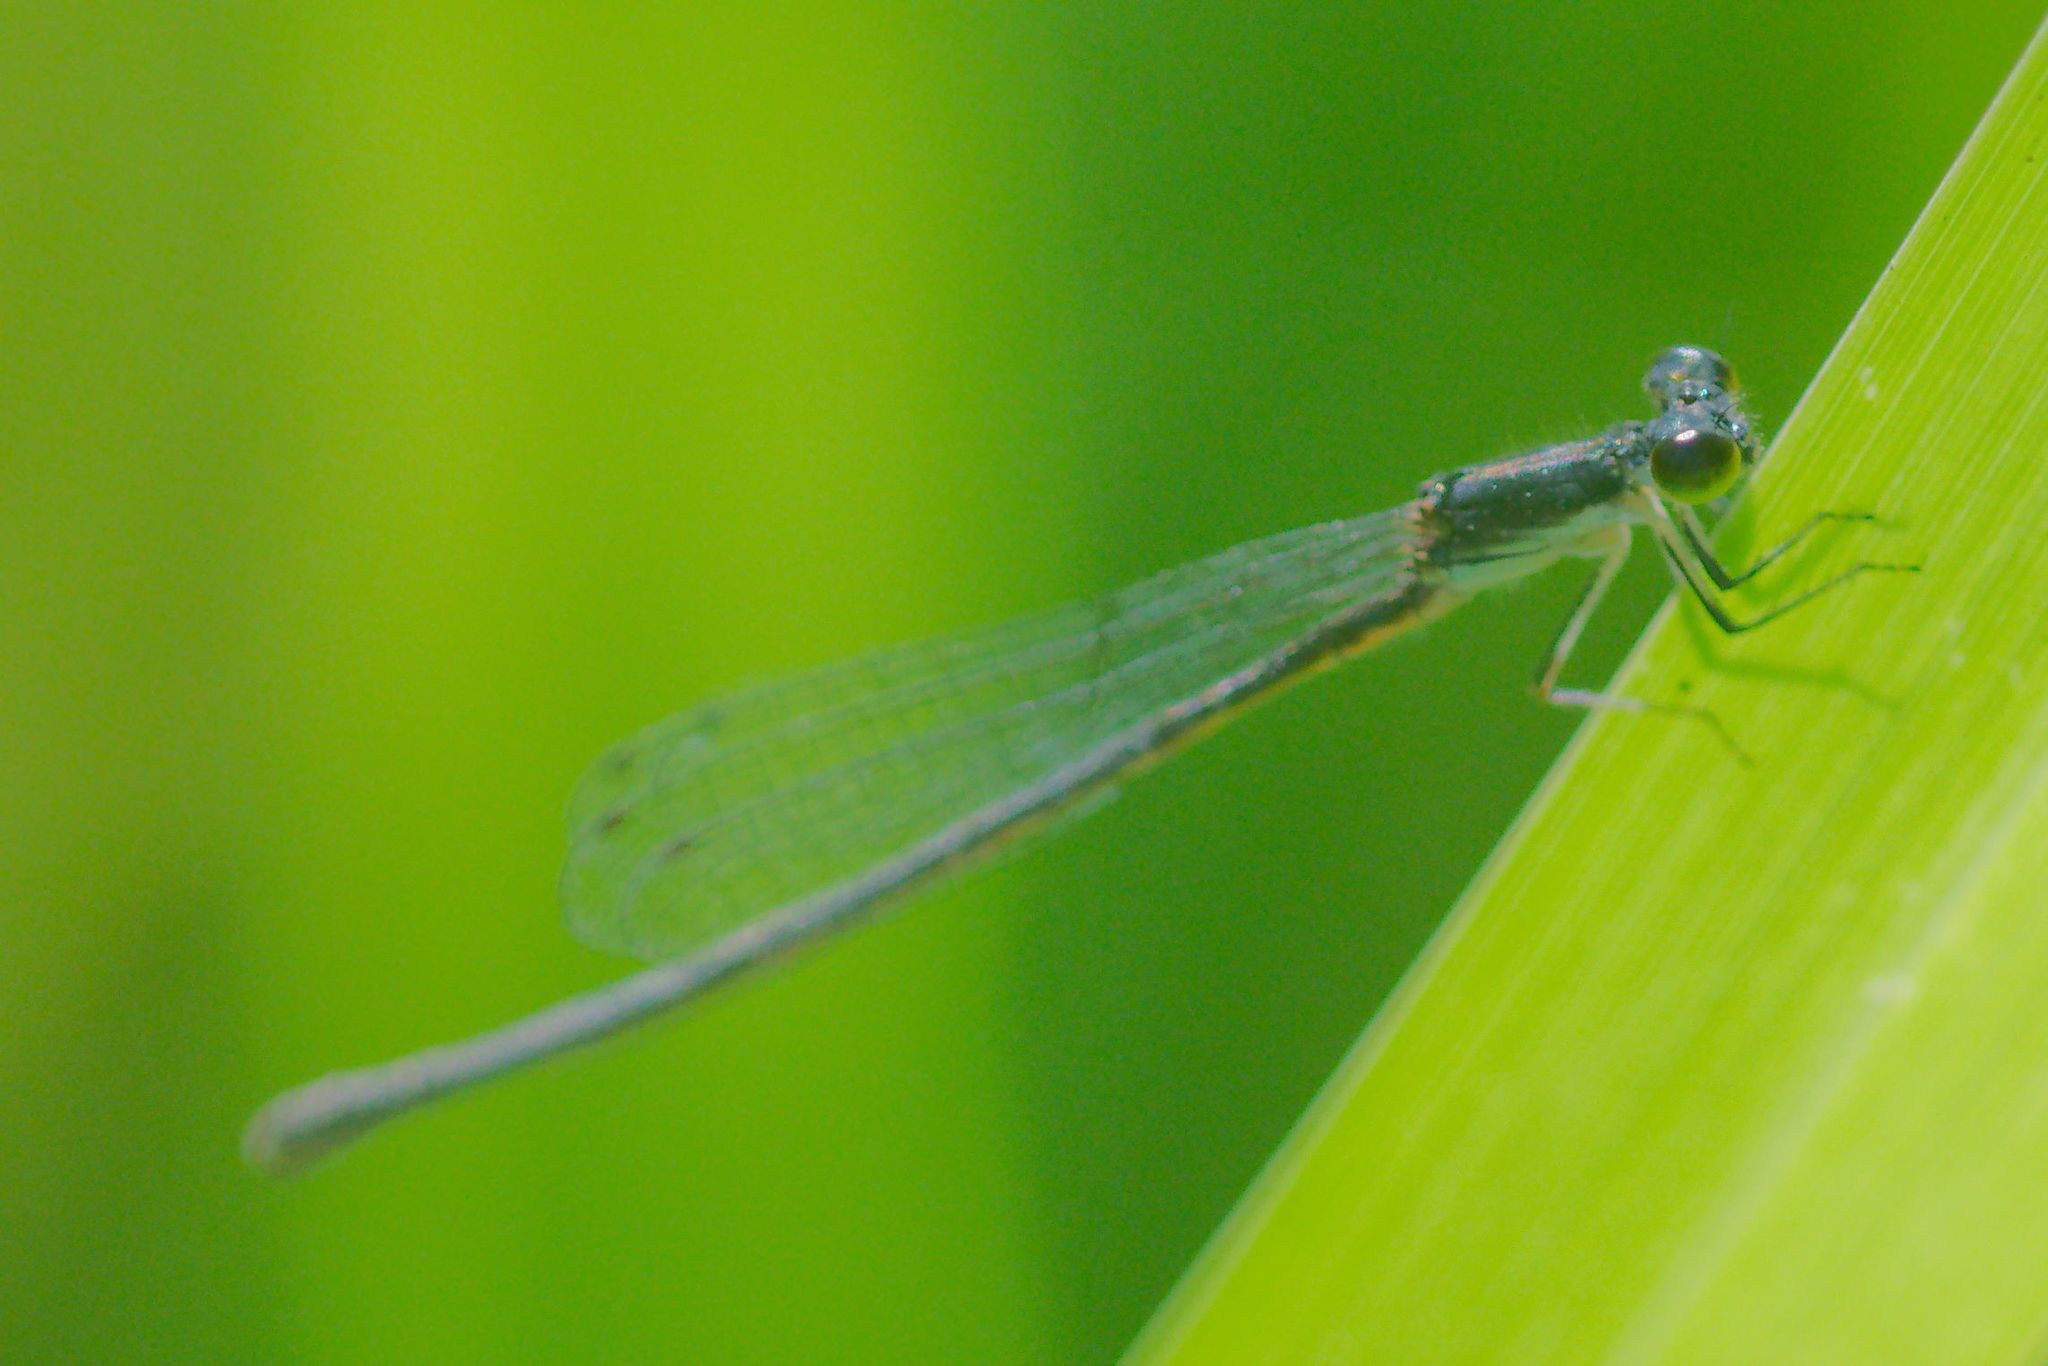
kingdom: Animalia
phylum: Arthropoda
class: Insecta
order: Odonata
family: Coenagrionidae
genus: Ischnura
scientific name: Ischnura posita
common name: Fragile forktail
